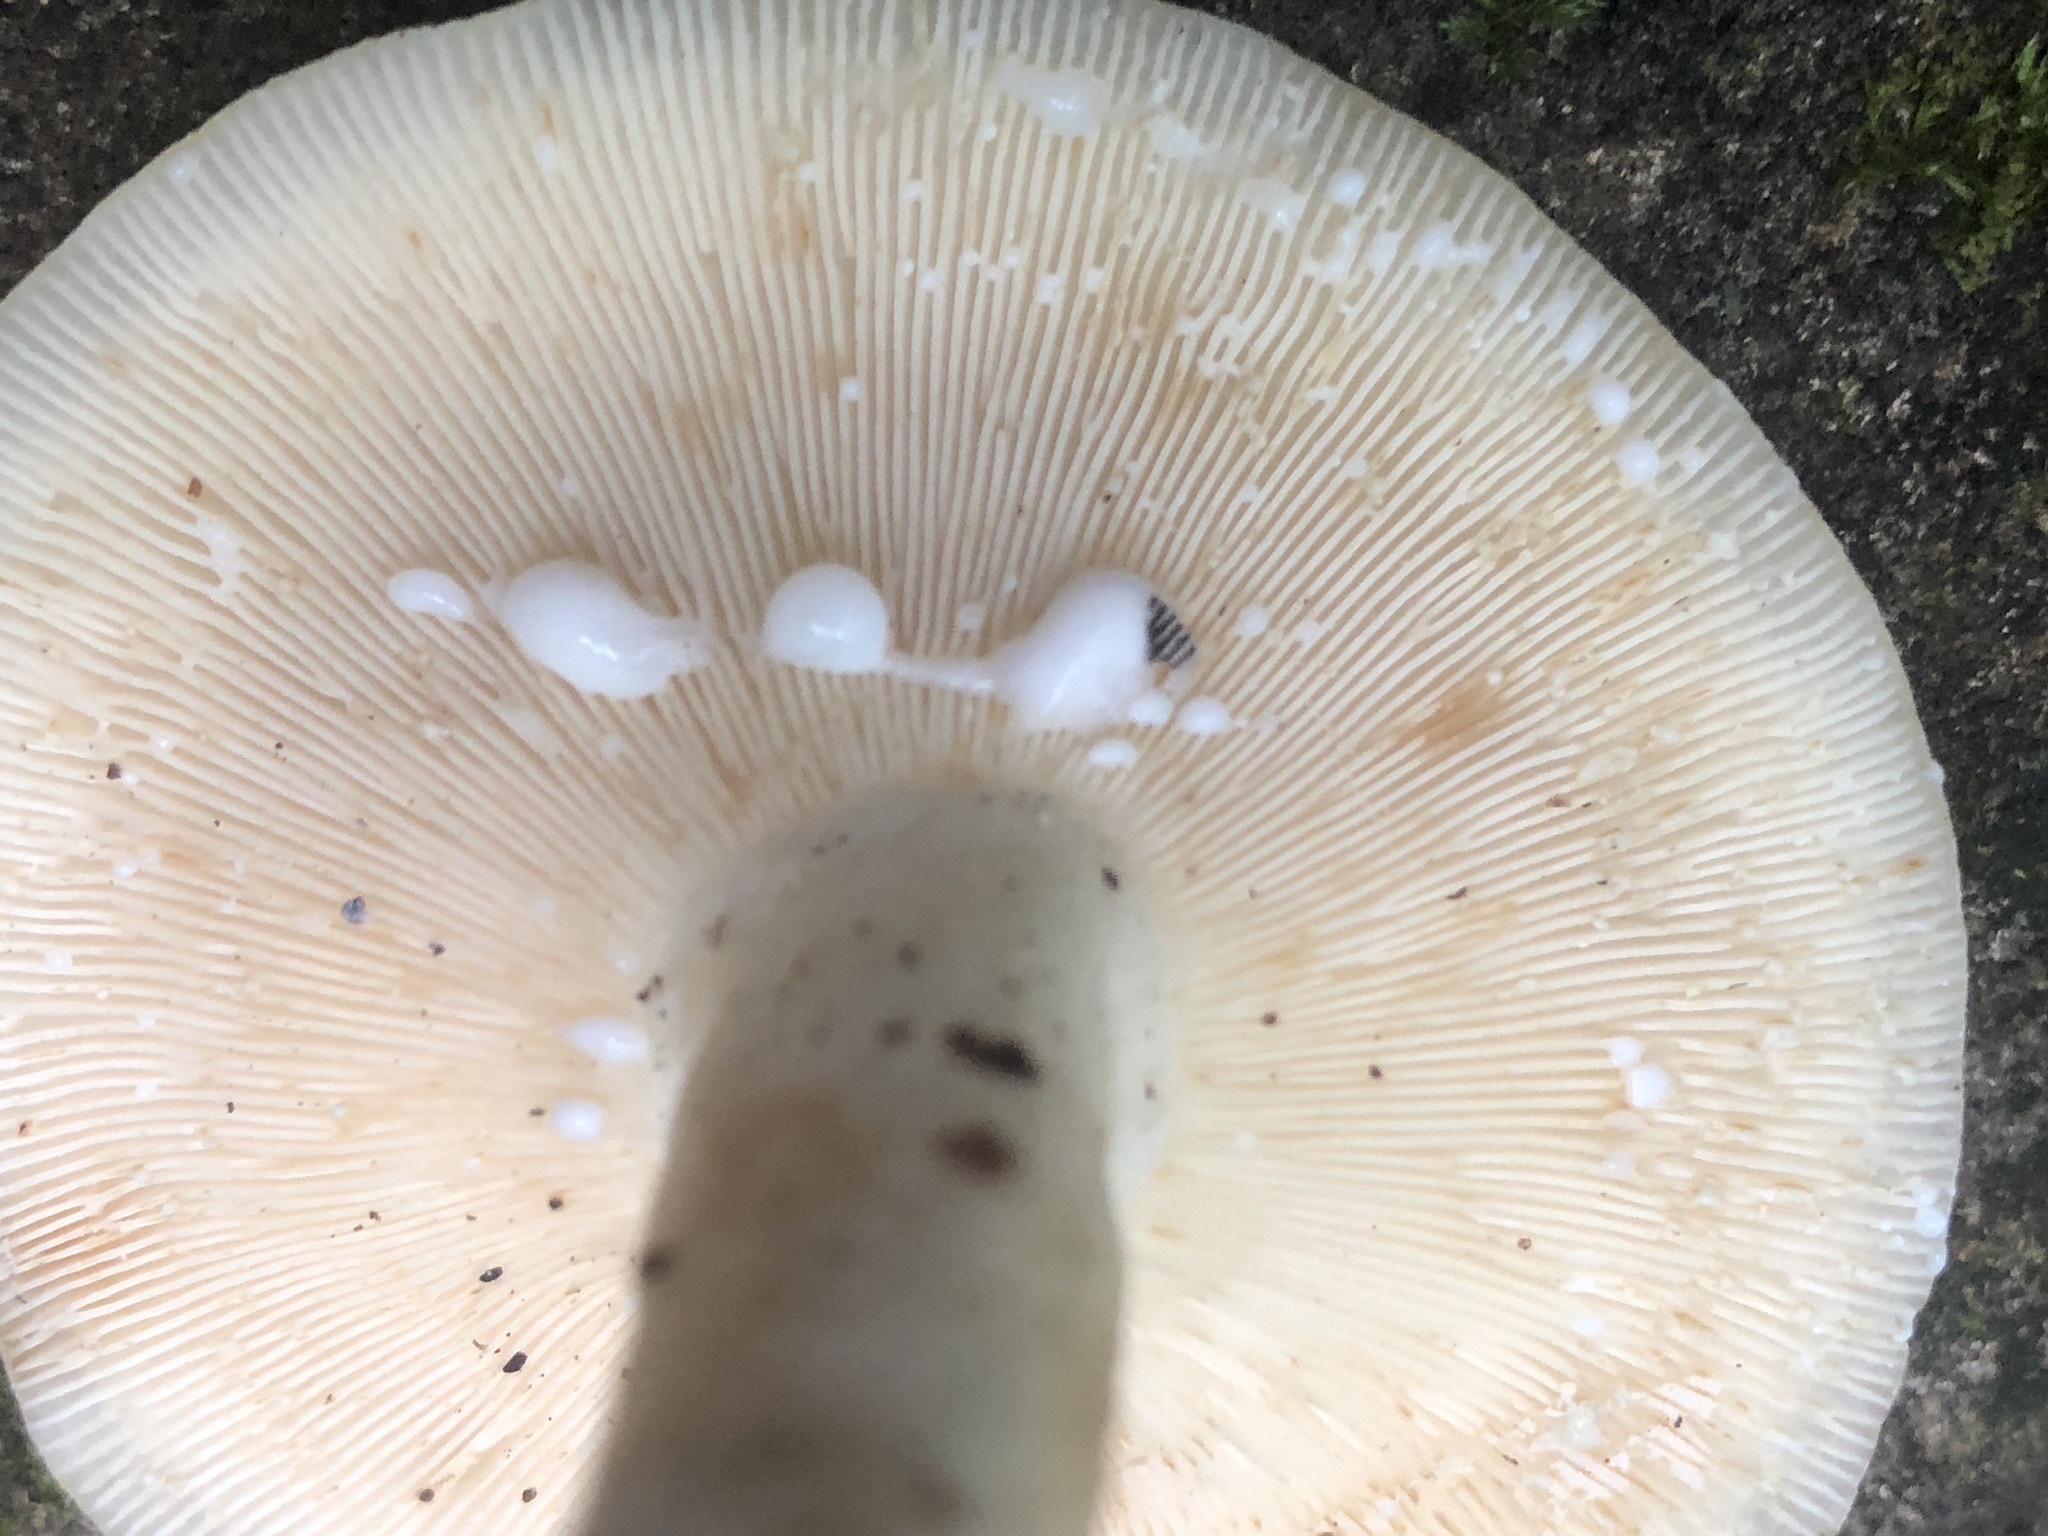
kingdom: Fungi
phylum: Basidiomycota
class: Agaricomycetes
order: Russulales
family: Russulaceae
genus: Lactifluus
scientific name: Lactifluus glaucescens
